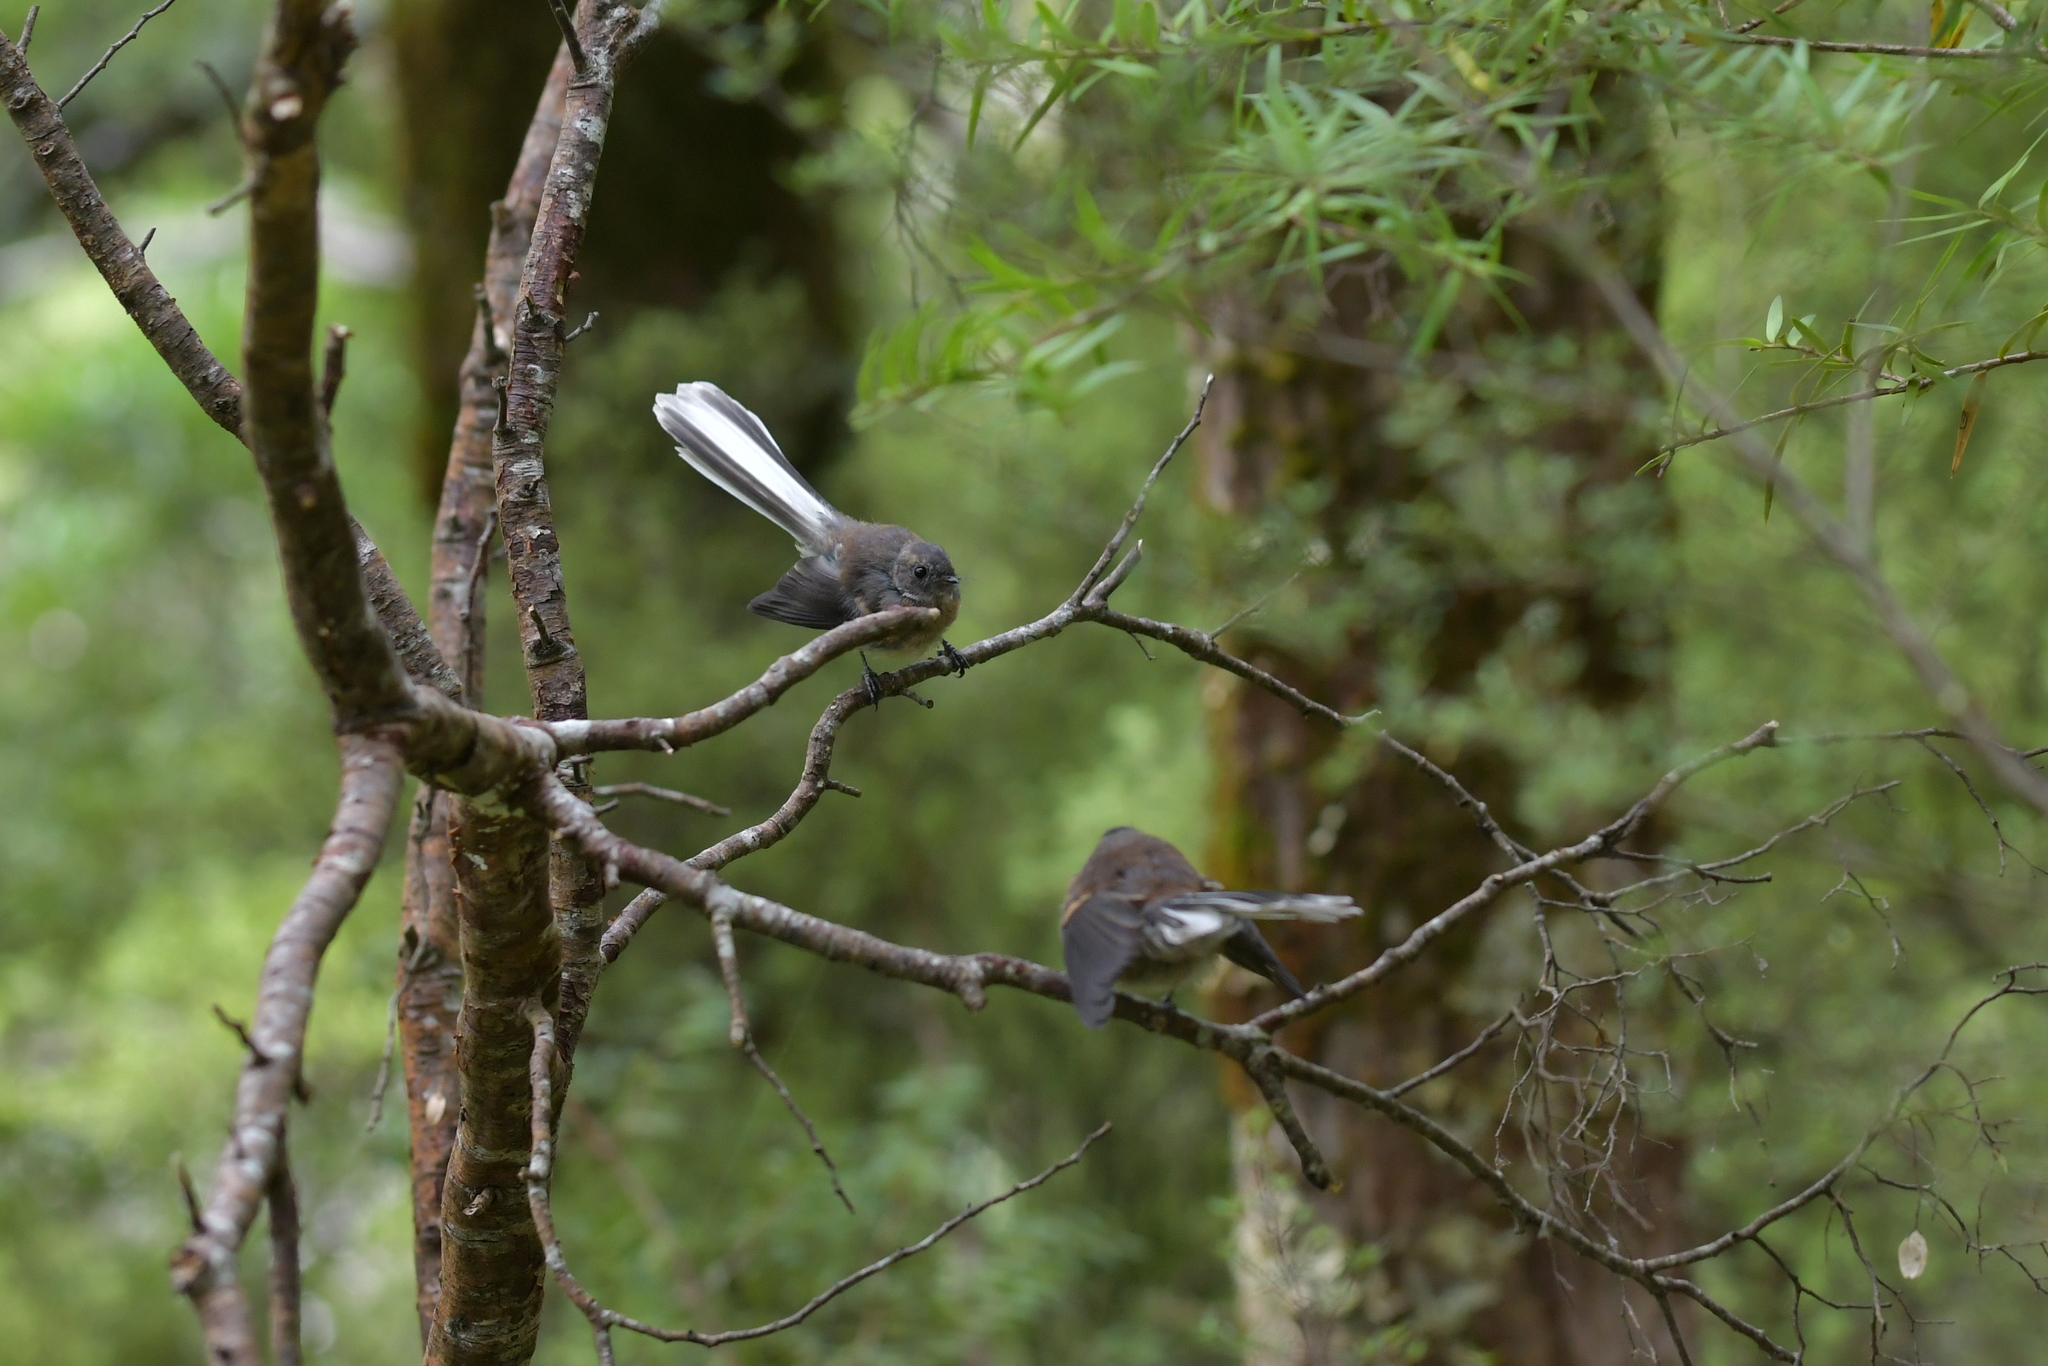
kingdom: Animalia
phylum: Chordata
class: Aves
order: Passeriformes
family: Rhipiduridae
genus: Rhipidura
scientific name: Rhipidura fuliginosa
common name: New zealand fantail
